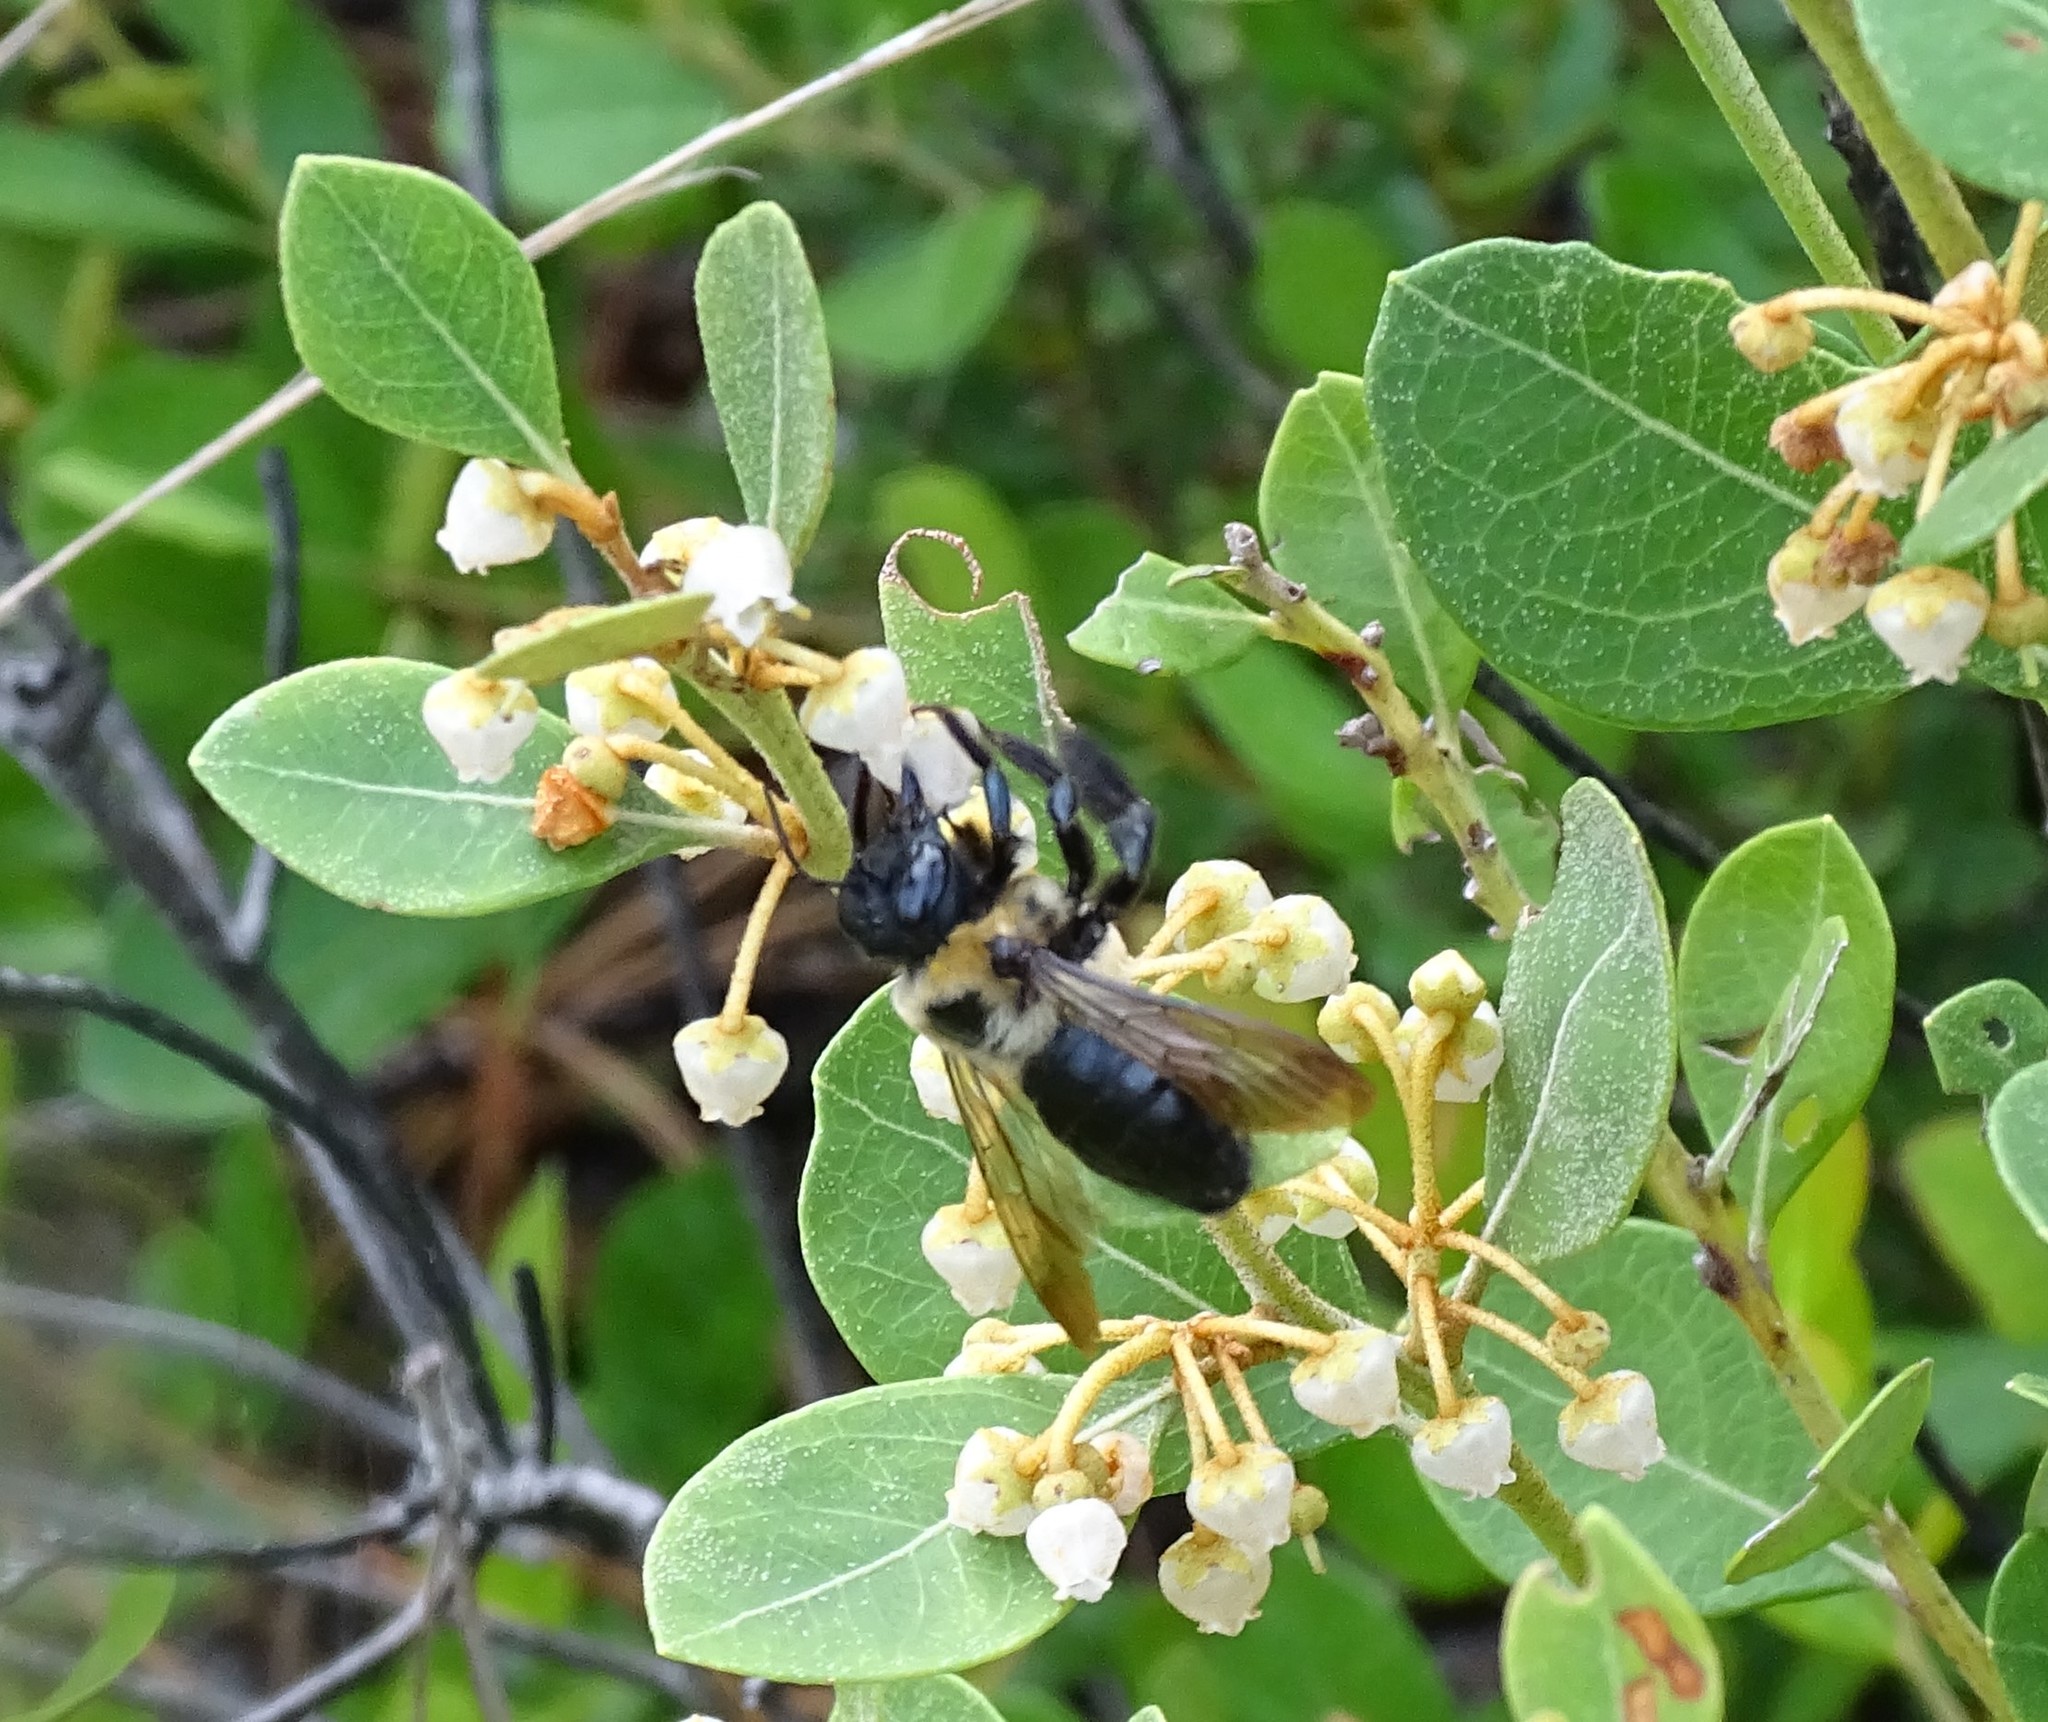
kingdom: Animalia
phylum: Arthropoda
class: Insecta
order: Hymenoptera
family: Apidae
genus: Xylocopa
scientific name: Xylocopa virginica
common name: Carpenter bee
